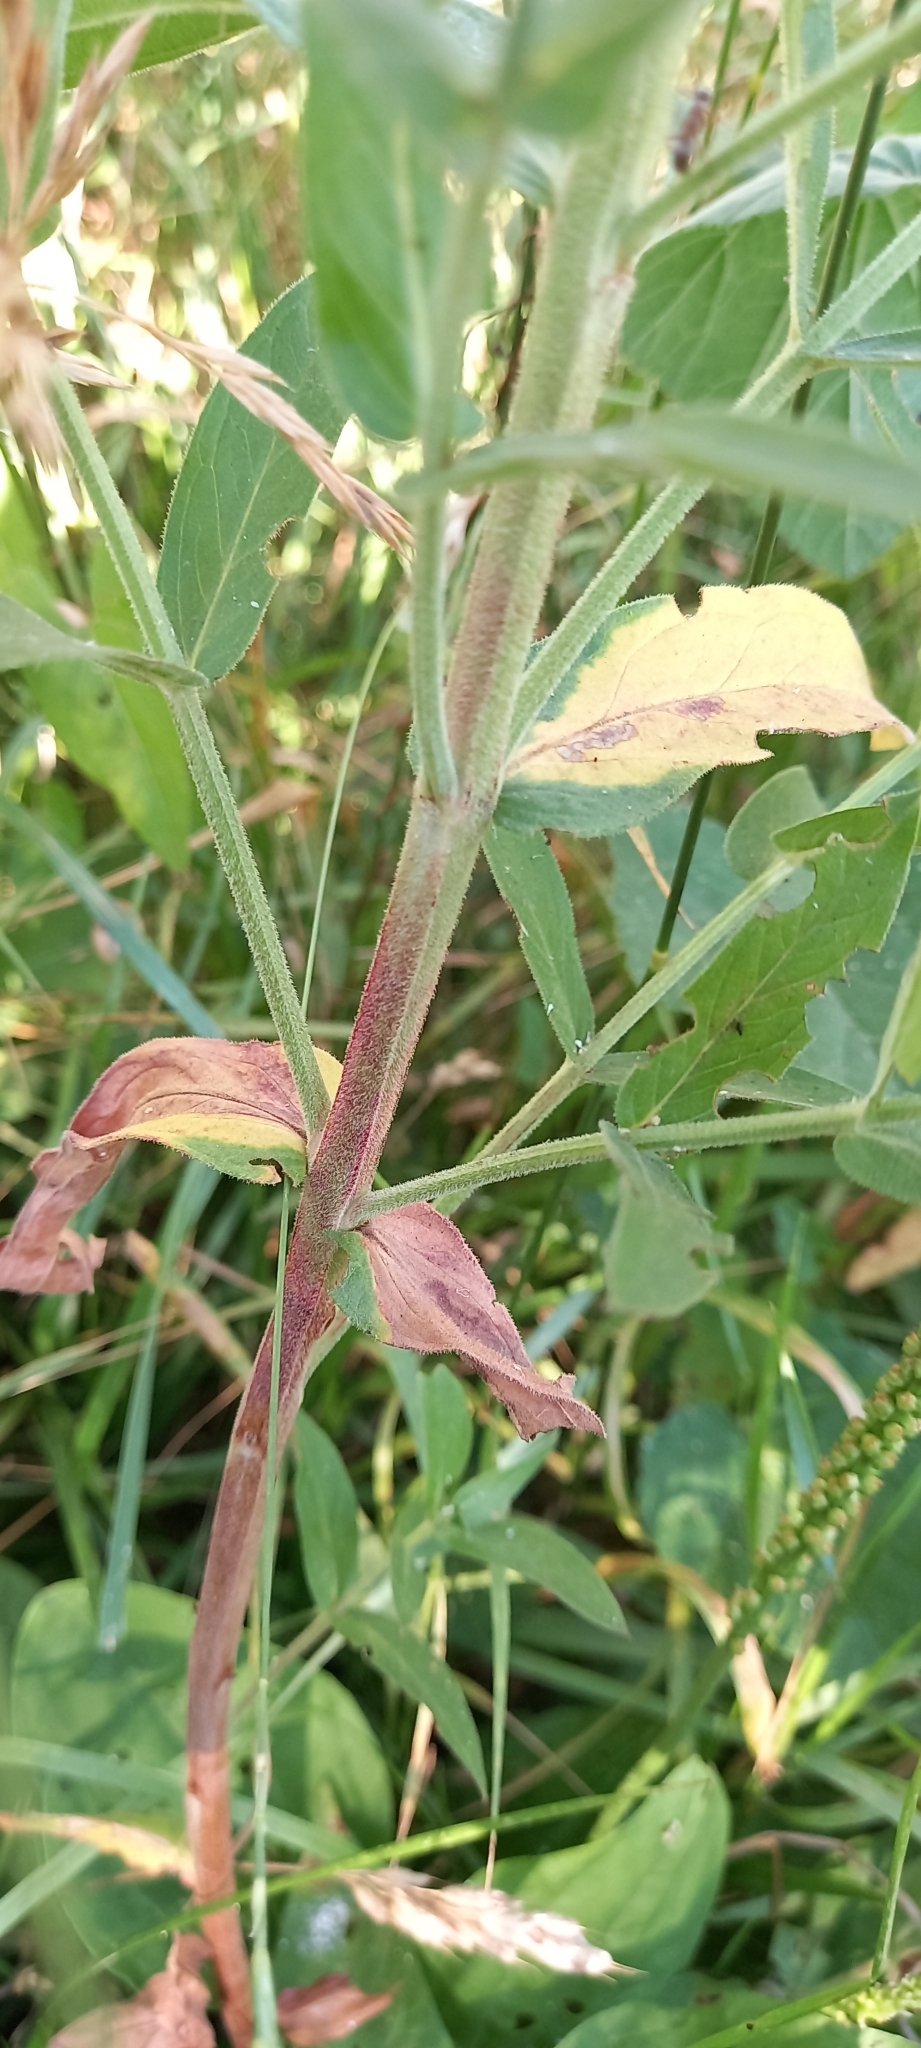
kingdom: Plantae
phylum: Tracheophyta
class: Magnoliopsida
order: Myrtales
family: Lythraceae
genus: Lythrum
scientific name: Lythrum salicaria
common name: Purple loosestrife
